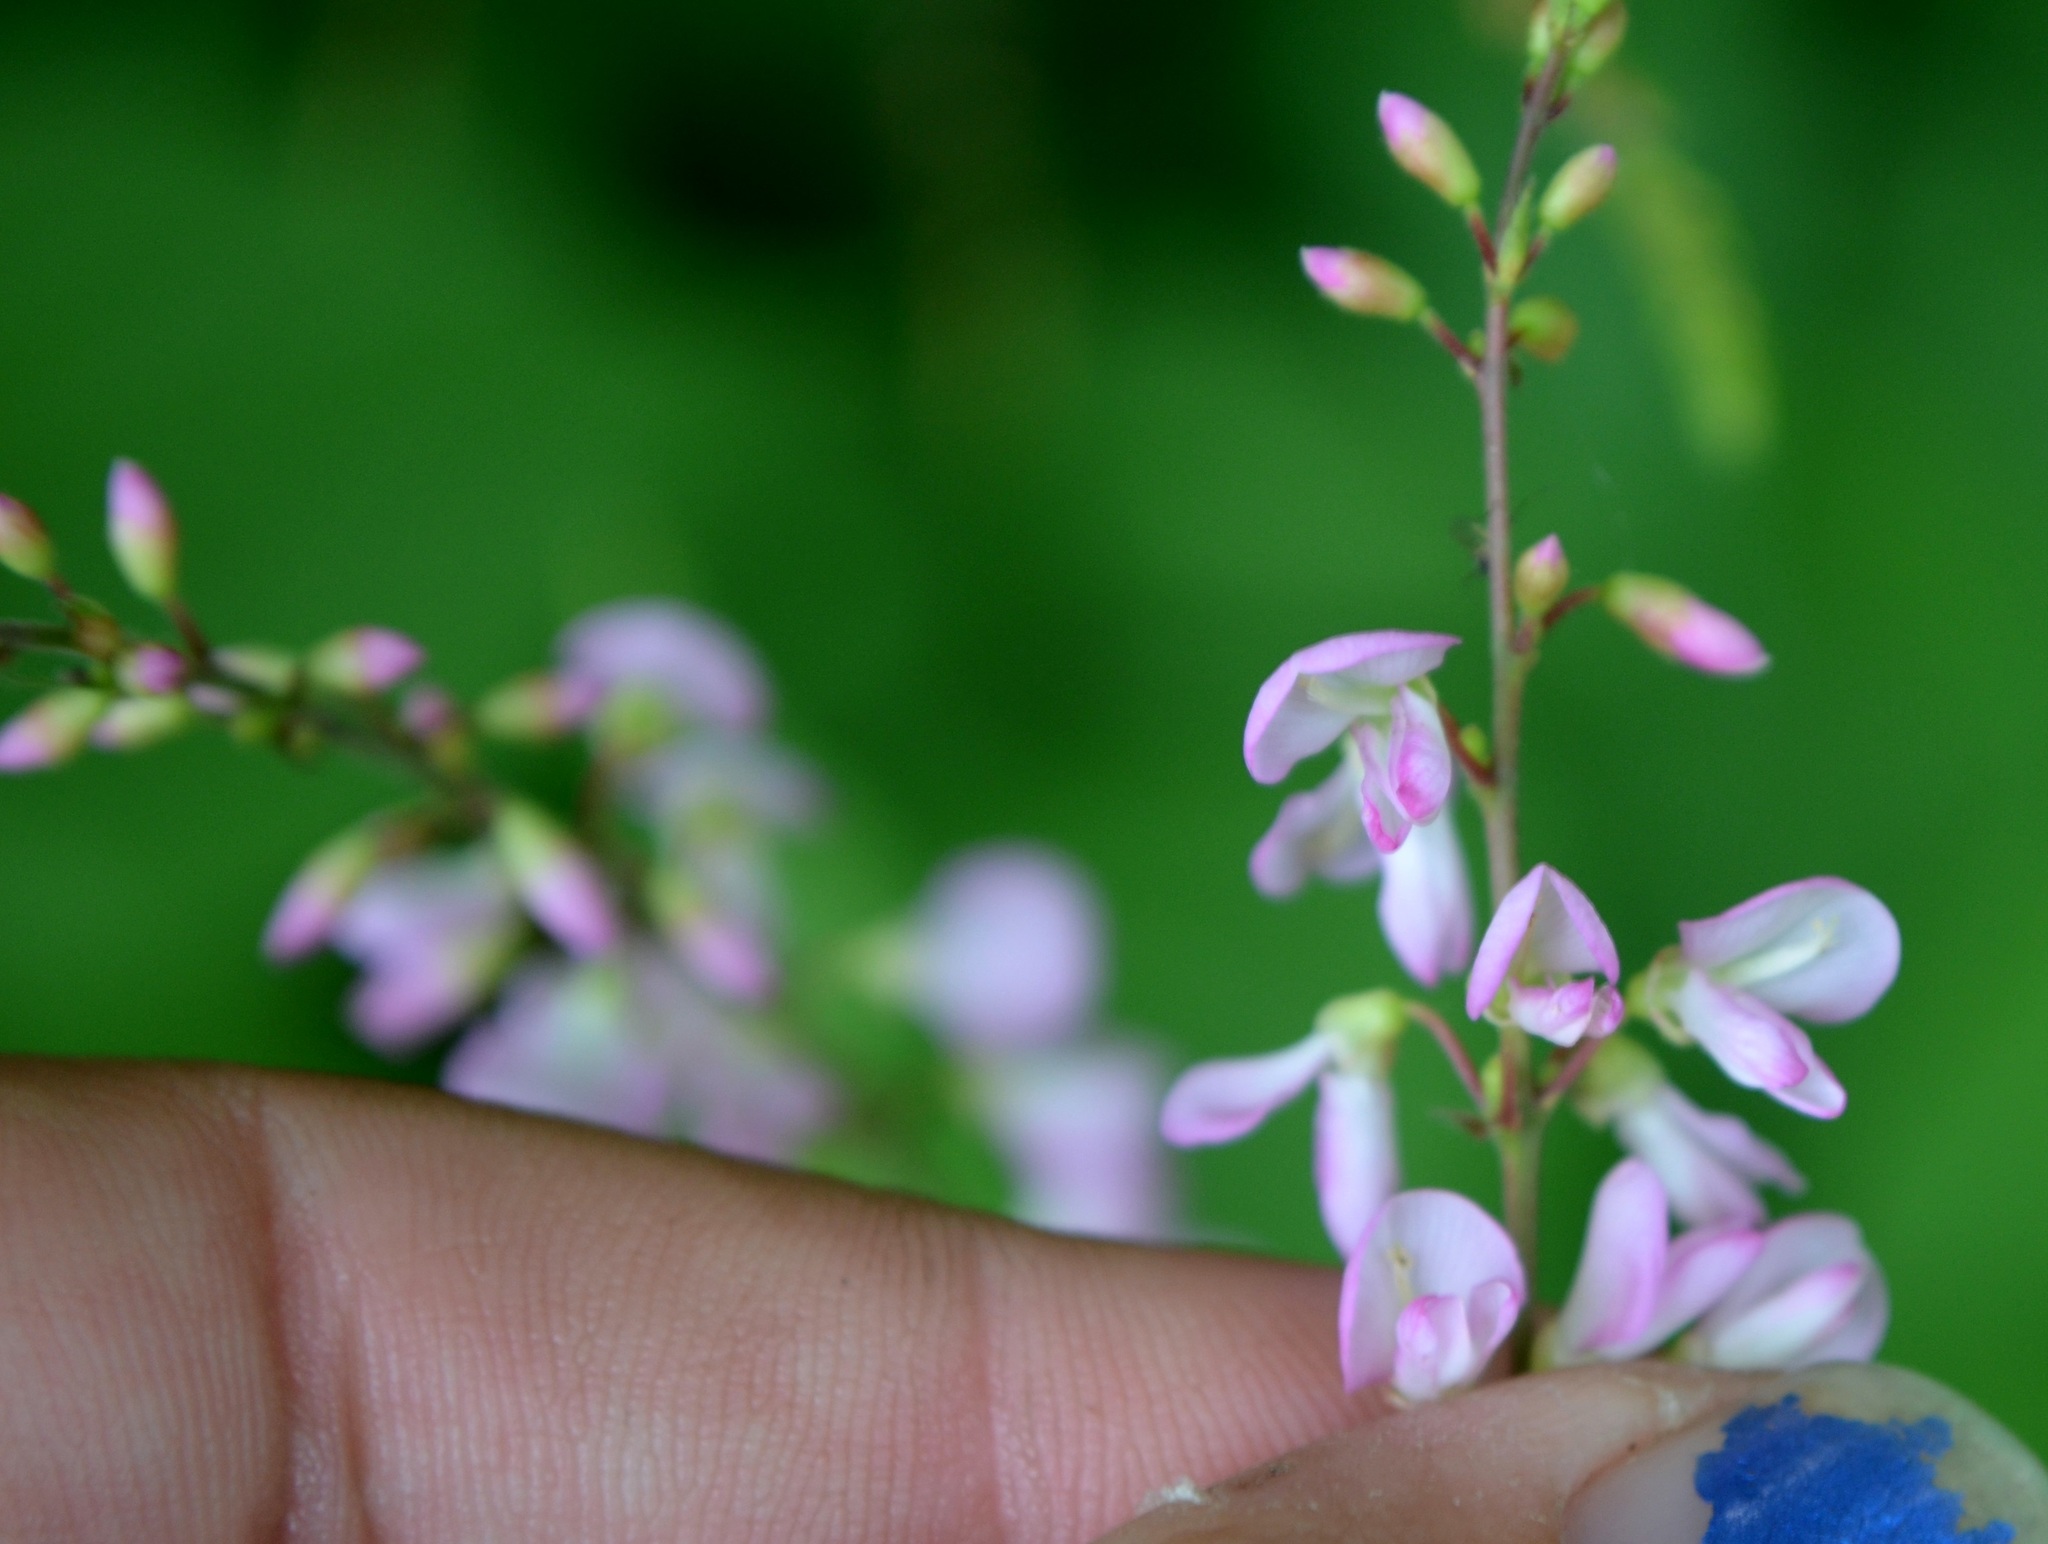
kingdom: Plantae
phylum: Tracheophyta
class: Magnoliopsida
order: Fabales
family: Fabaceae
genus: Hylodesmum
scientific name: Hylodesmum glutinosum
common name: Clustered-leaved tick-trefoil
